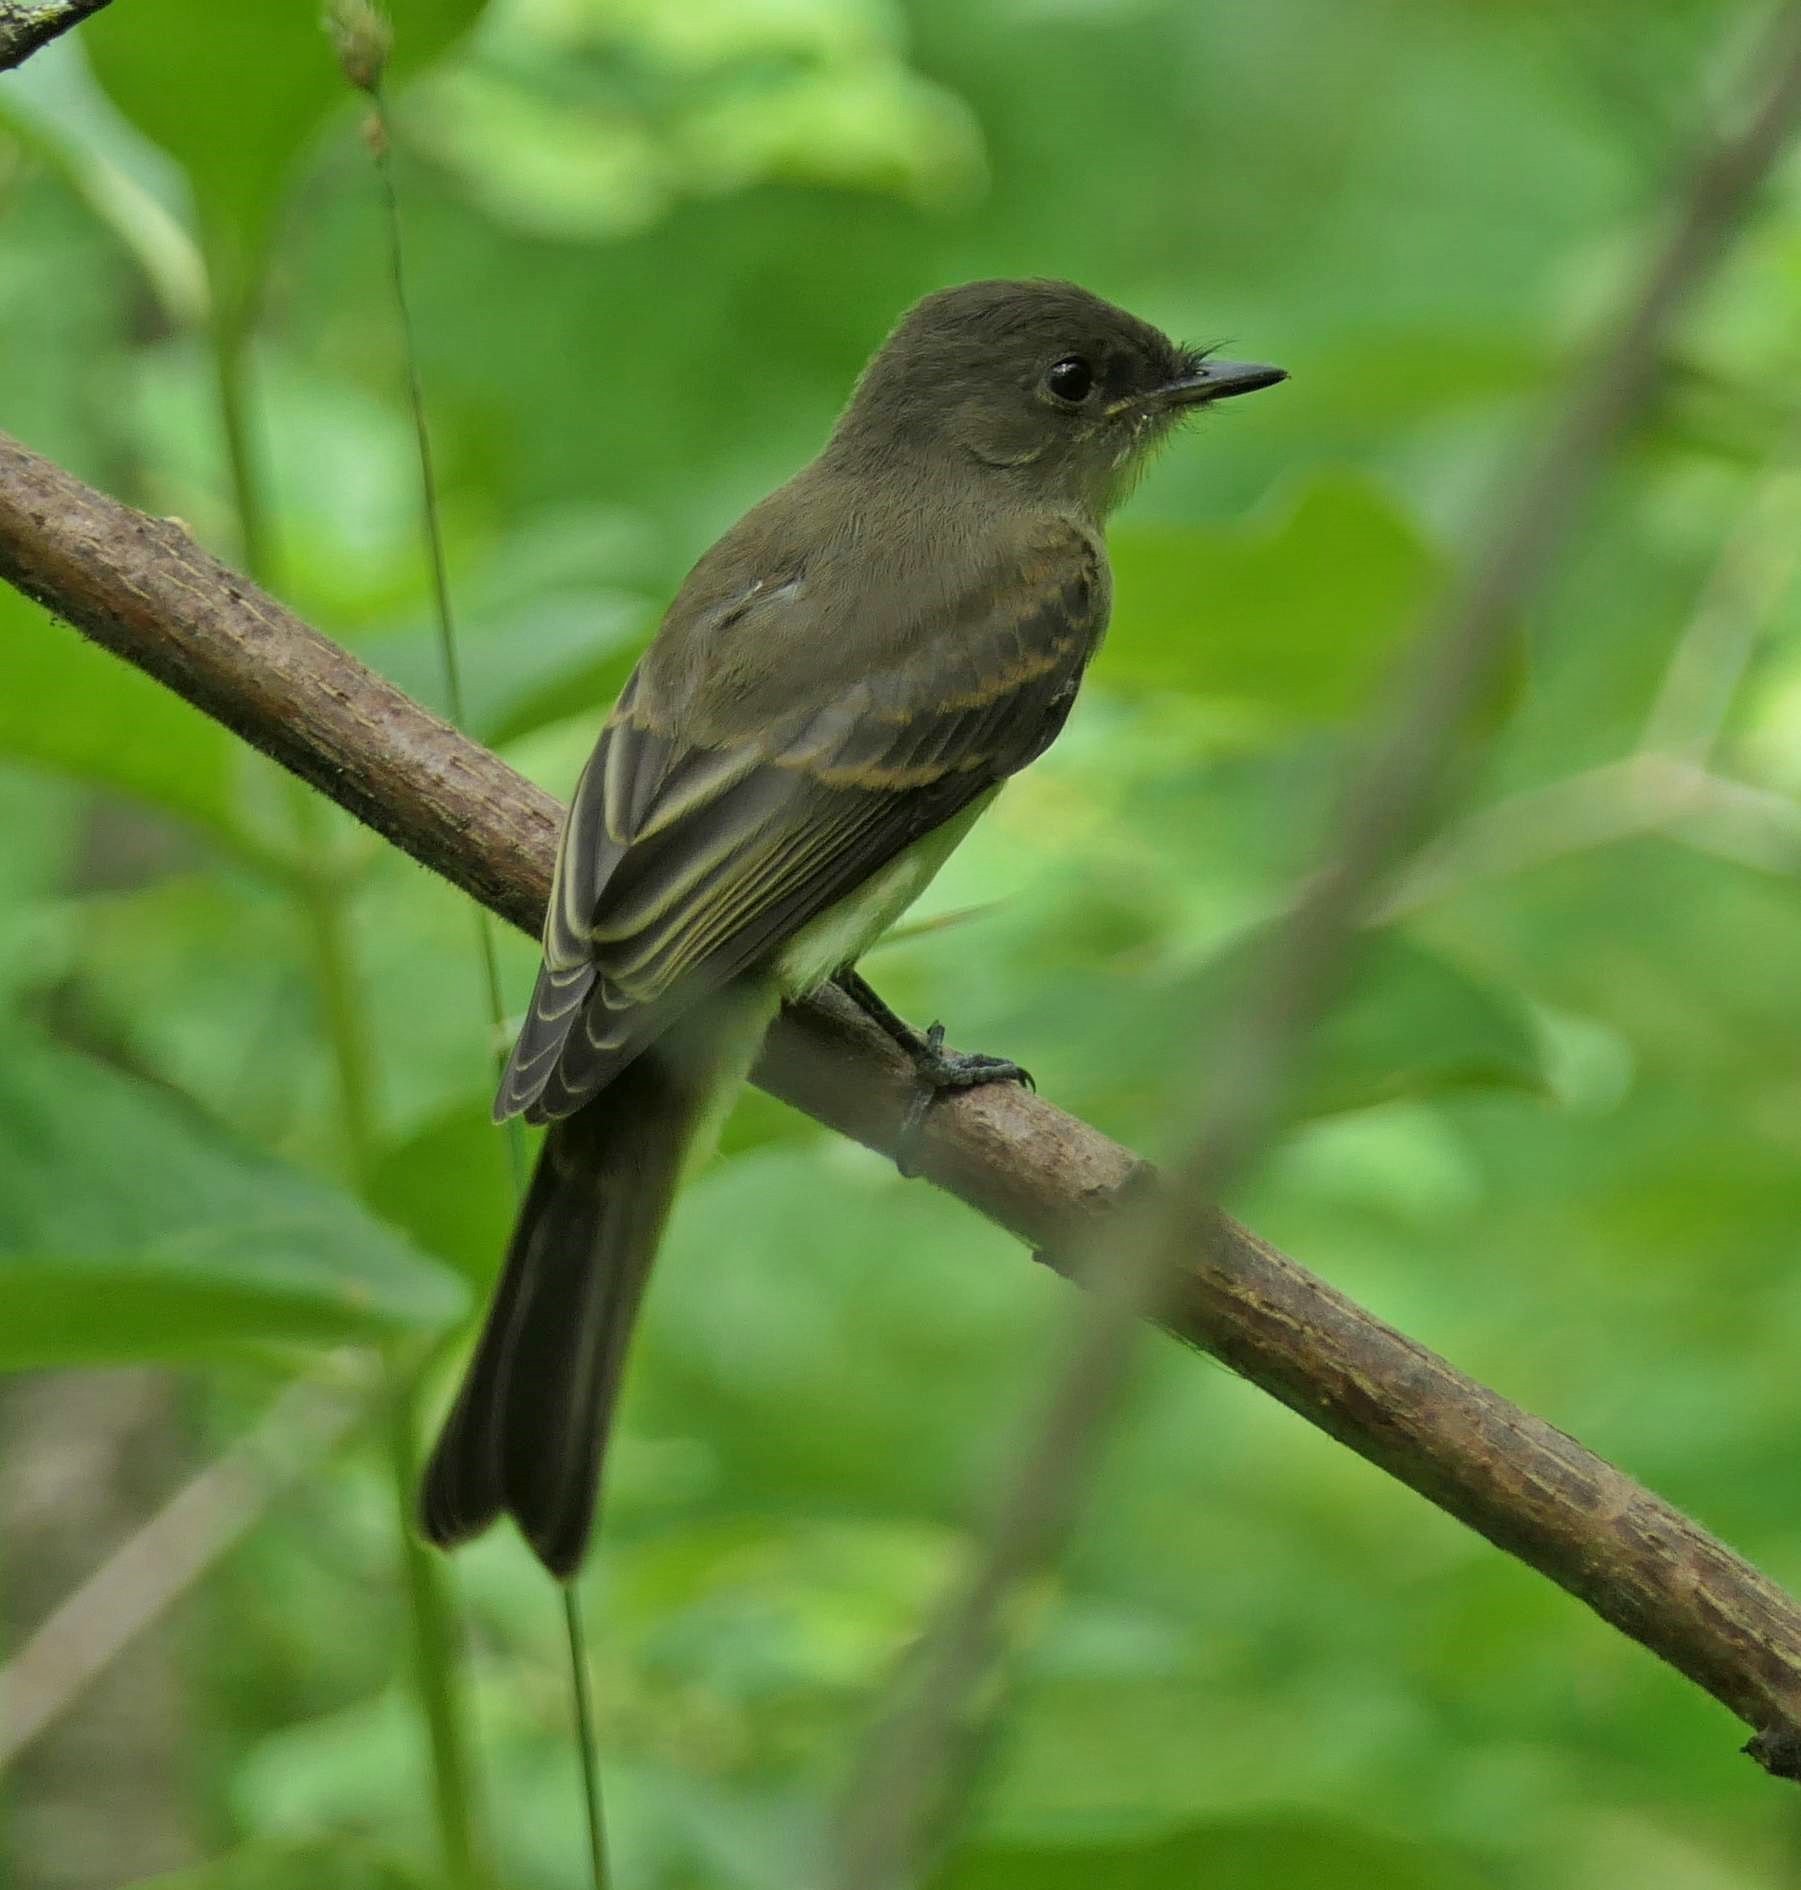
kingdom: Animalia
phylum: Chordata
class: Aves
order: Passeriformes
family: Tyrannidae
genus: Sayornis
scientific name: Sayornis phoebe
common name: Eastern phoebe
